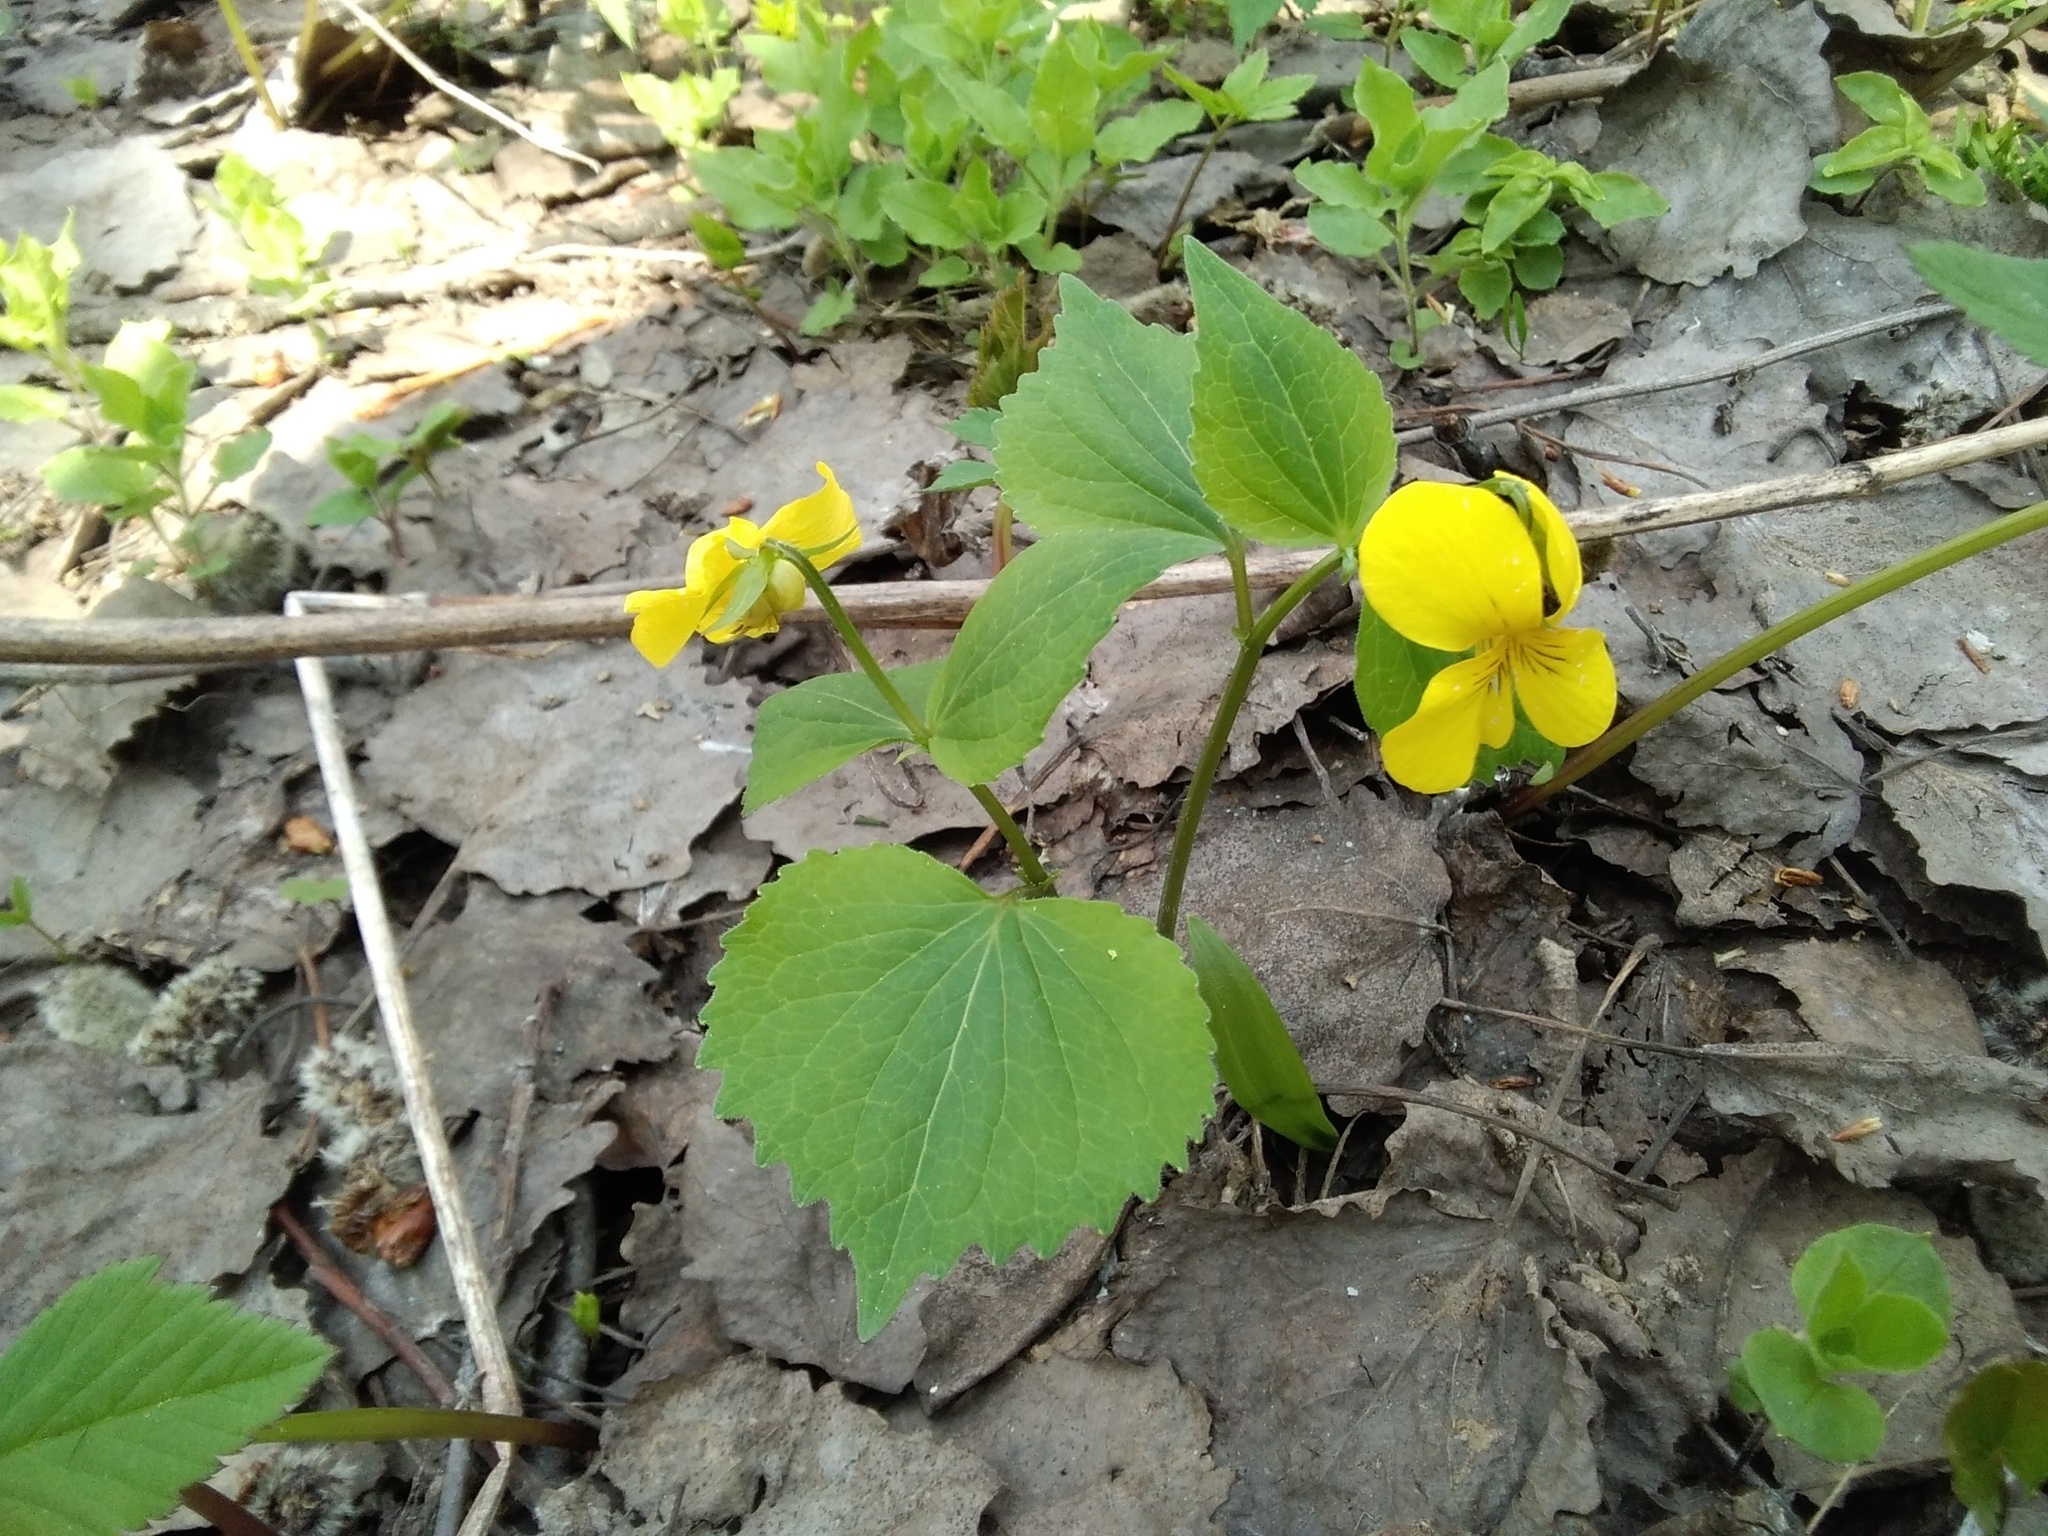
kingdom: Plantae
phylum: Tracheophyta
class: Magnoliopsida
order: Malpighiales
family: Violaceae
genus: Viola
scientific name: Viola uniflora
